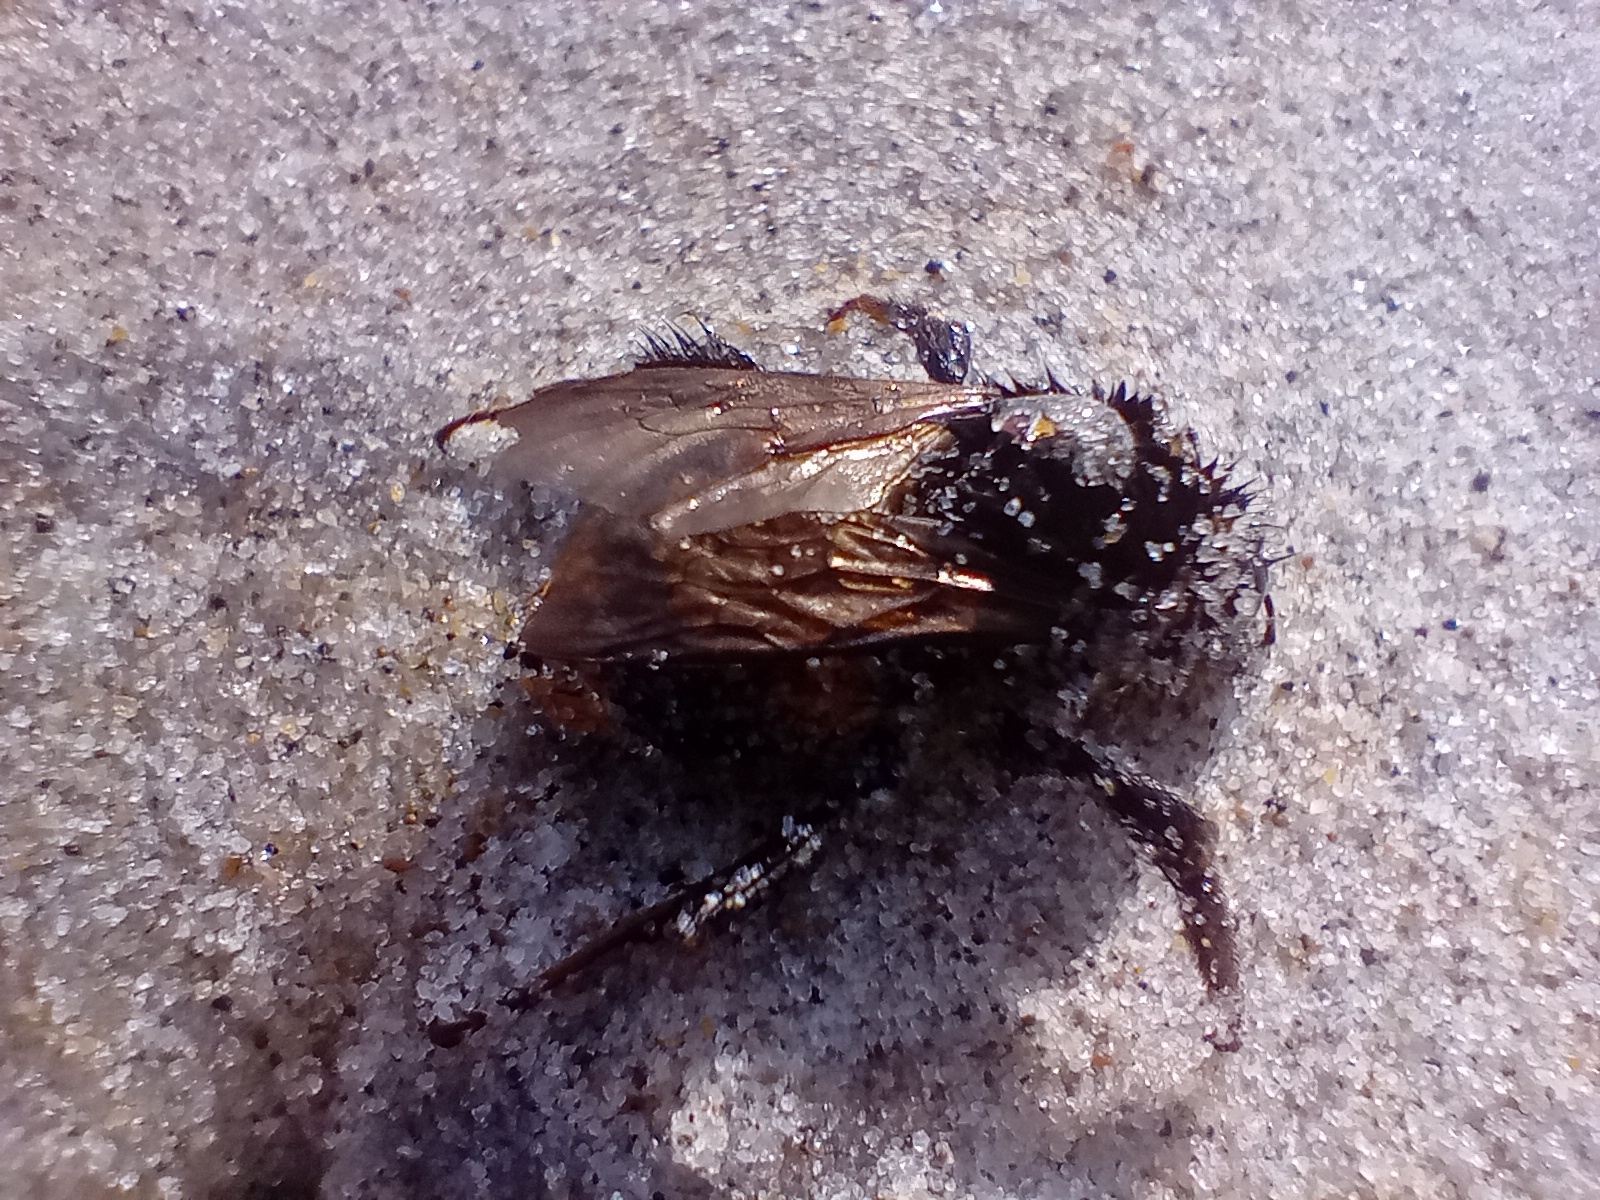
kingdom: Animalia
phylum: Arthropoda
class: Insecta
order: Hymenoptera
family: Apidae
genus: Bombus
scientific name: Bombus terrestris
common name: Buff-tailed bumblebee
